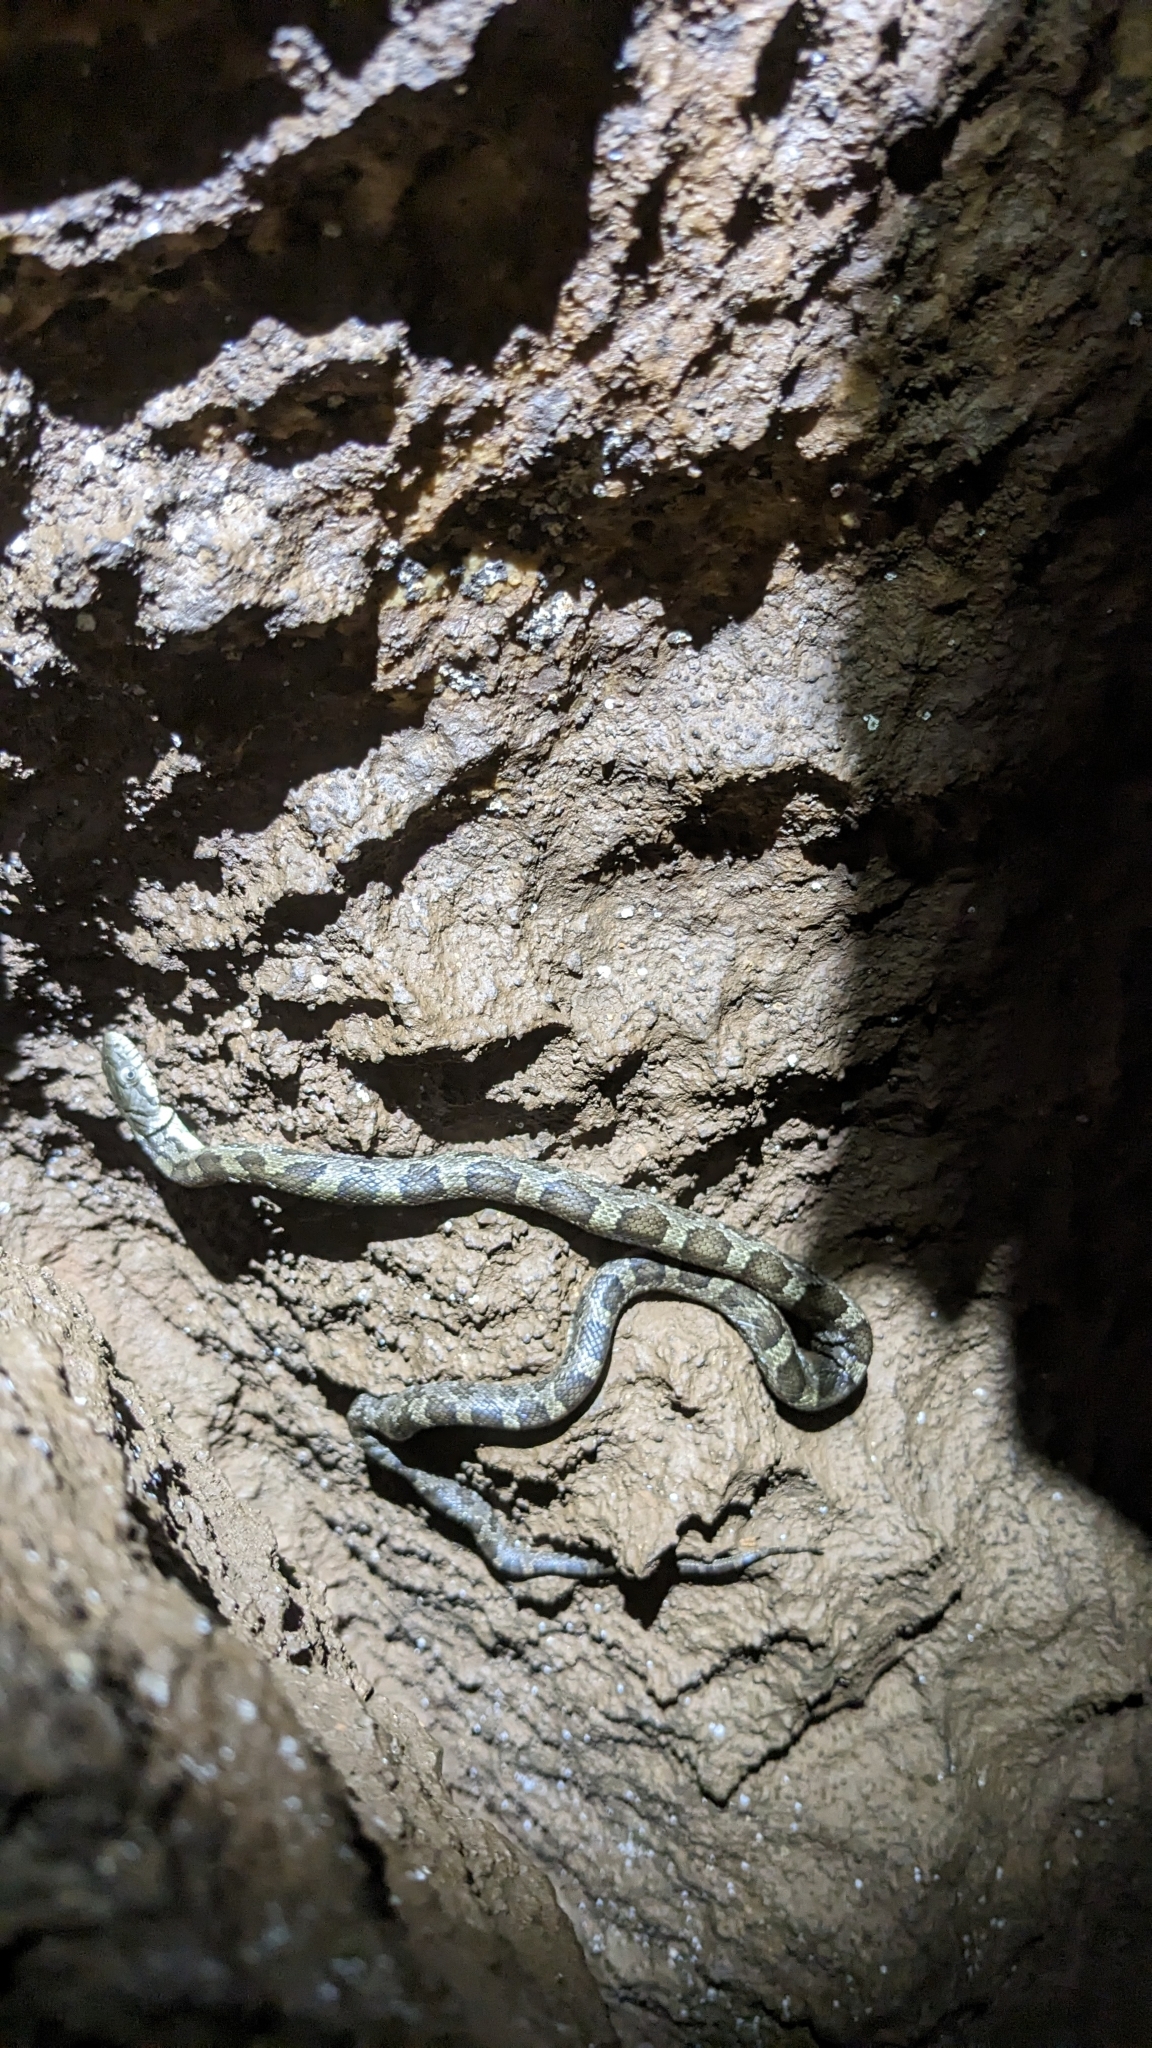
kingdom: Animalia
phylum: Chordata
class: Squamata
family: Colubridae
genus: Pantherophis
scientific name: Pantherophis spiloides
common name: Gray rat snake
